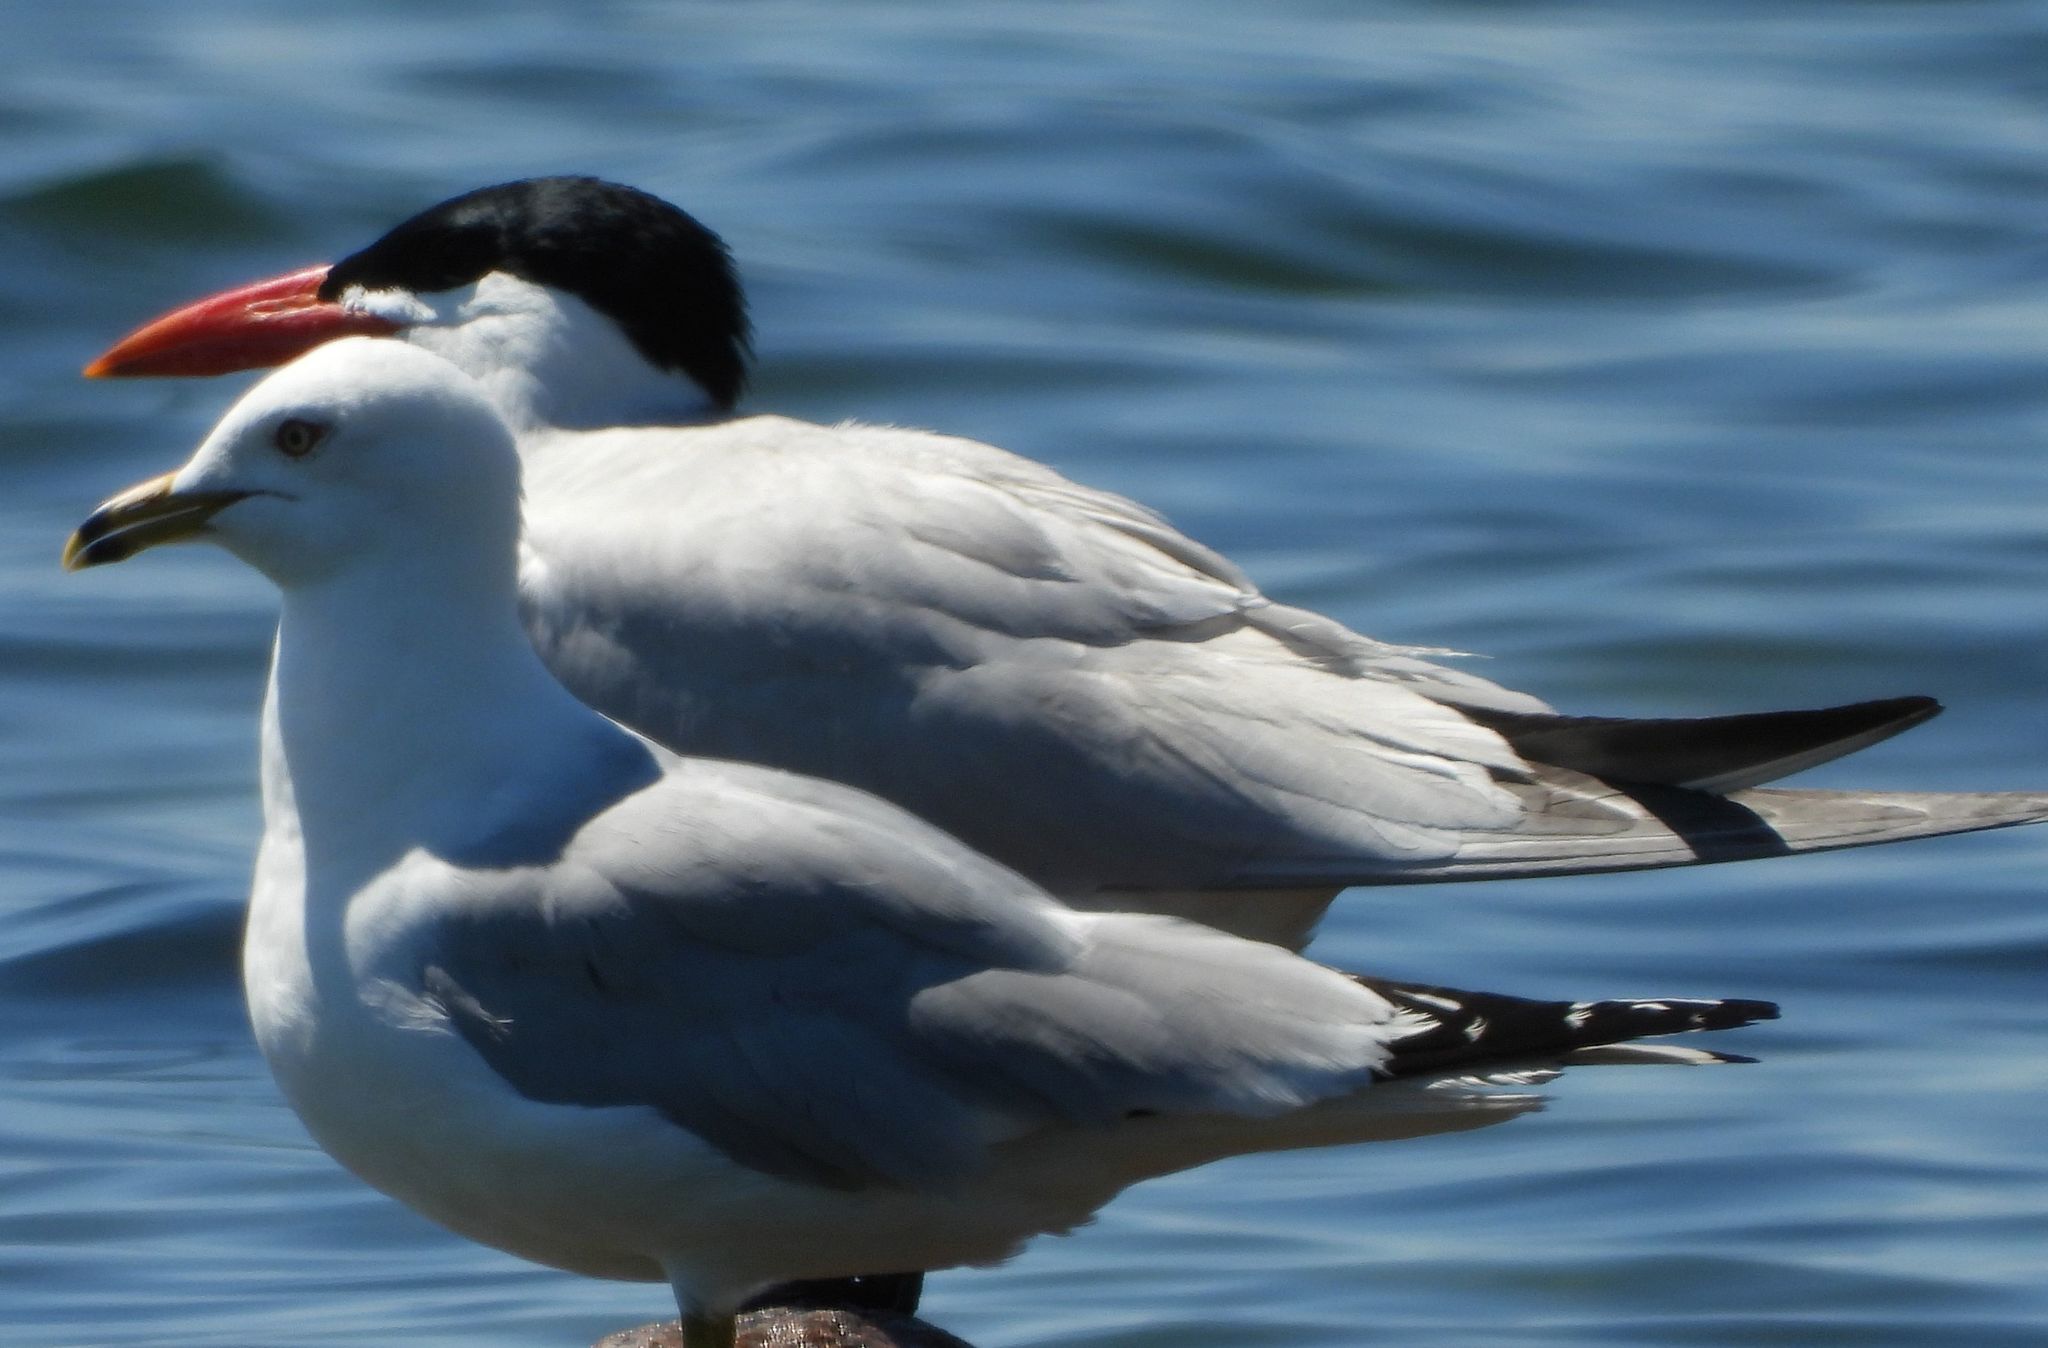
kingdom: Animalia
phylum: Chordata
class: Aves
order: Charadriiformes
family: Laridae
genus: Hydroprogne
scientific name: Hydroprogne caspia
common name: Caspian tern
